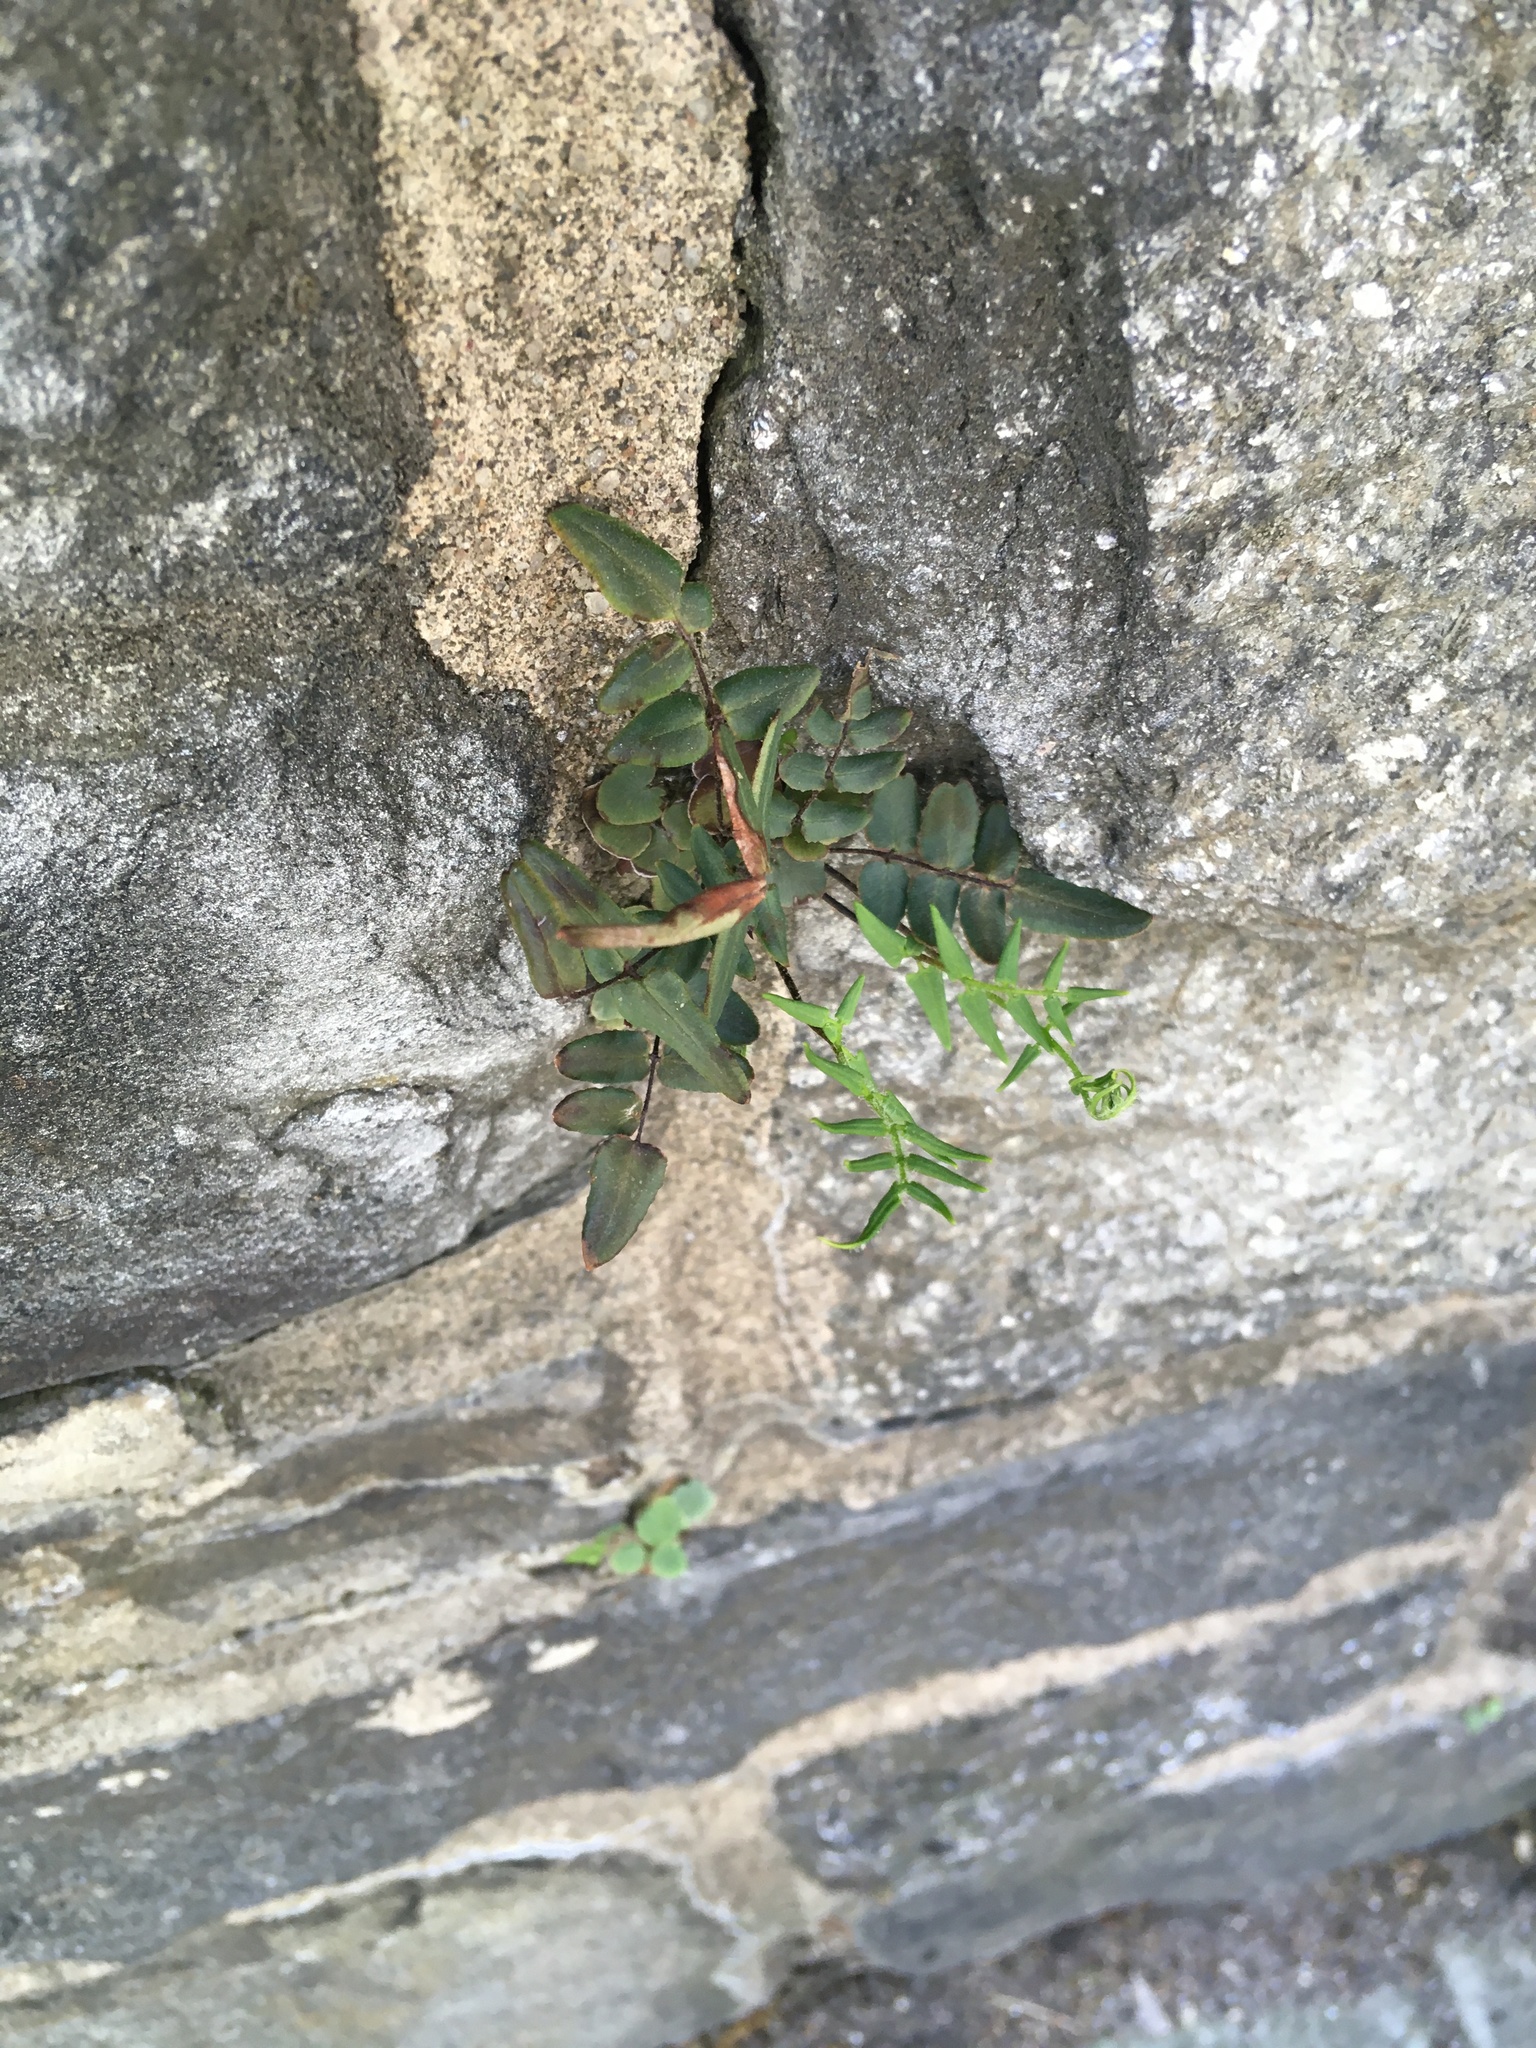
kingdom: Plantae
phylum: Tracheophyta
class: Polypodiopsida
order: Polypodiales
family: Pteridaceae
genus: Pellaea
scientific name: Pellaea atropurpurea
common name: Hairy cliffbrake
